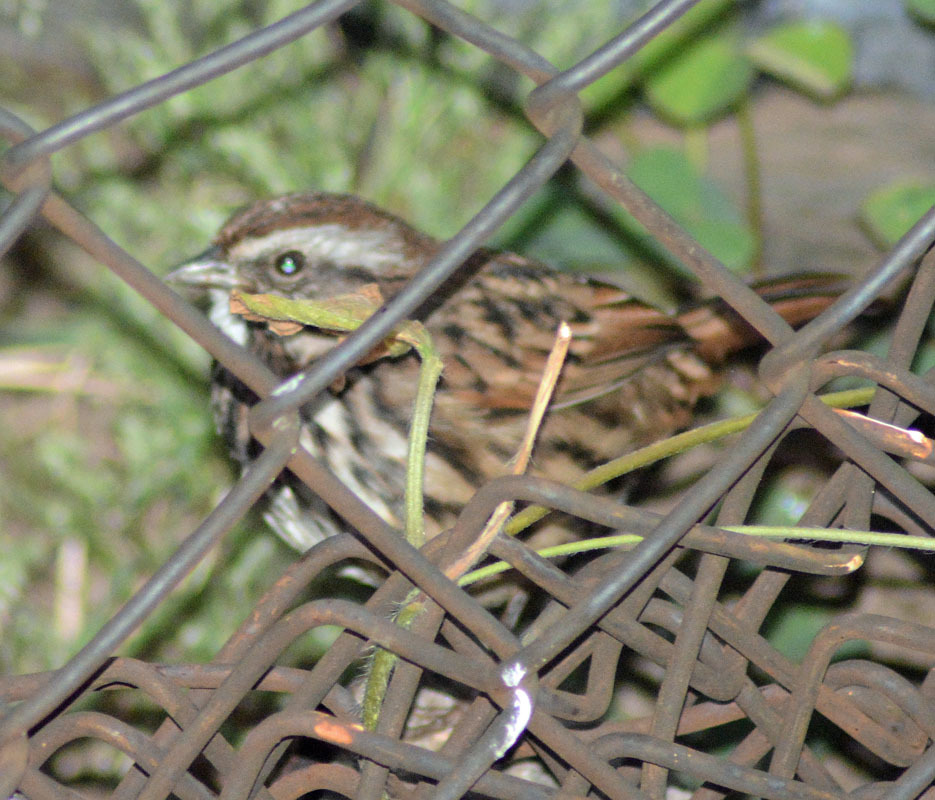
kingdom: Animalia
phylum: Chordata
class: Aves
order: Passeriformes
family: Passerellidae
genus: Melospiza
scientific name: Melospiza melodia
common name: Song sparrow
